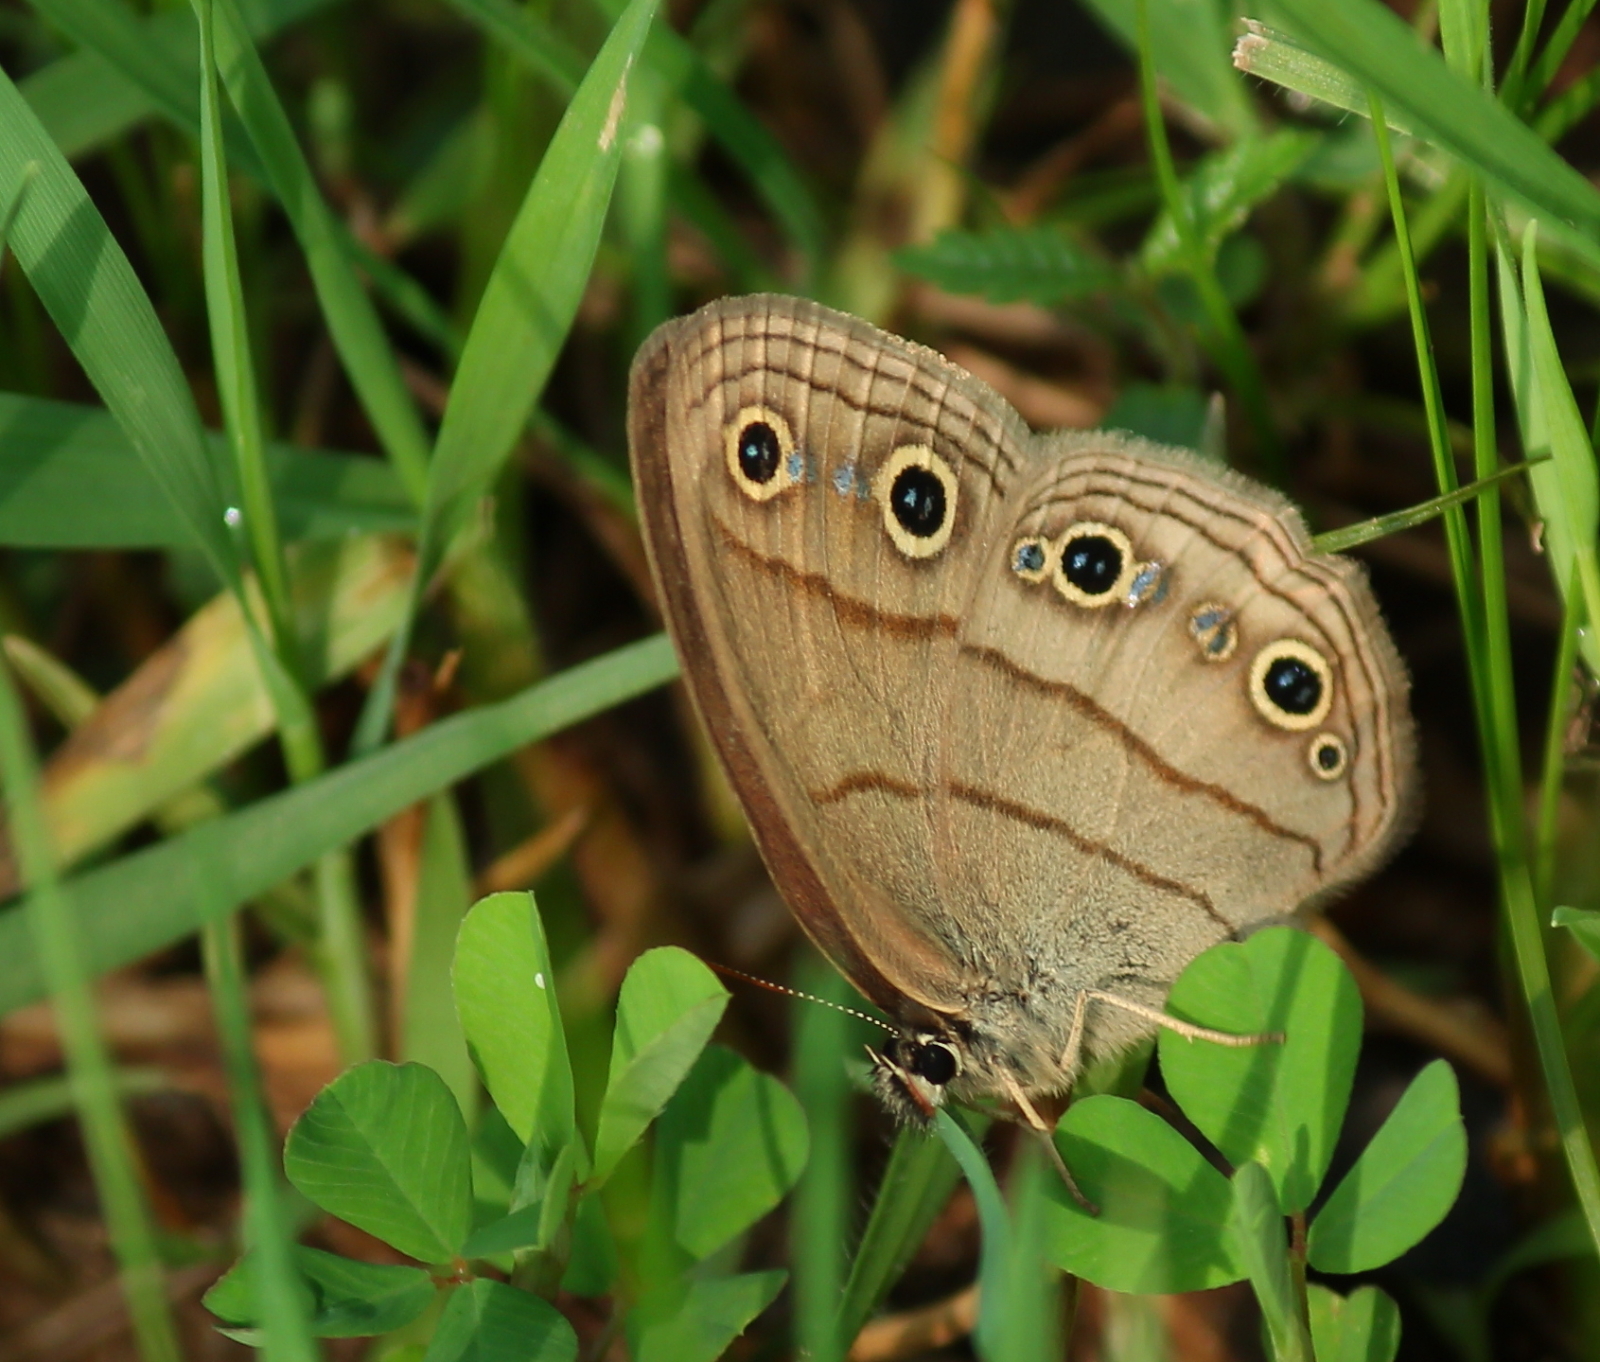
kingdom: Animalia
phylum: Arthropoda
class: Insecta
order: Lepidoptera
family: Nymphalidae
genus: Euptychia
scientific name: Euptychia cymela
